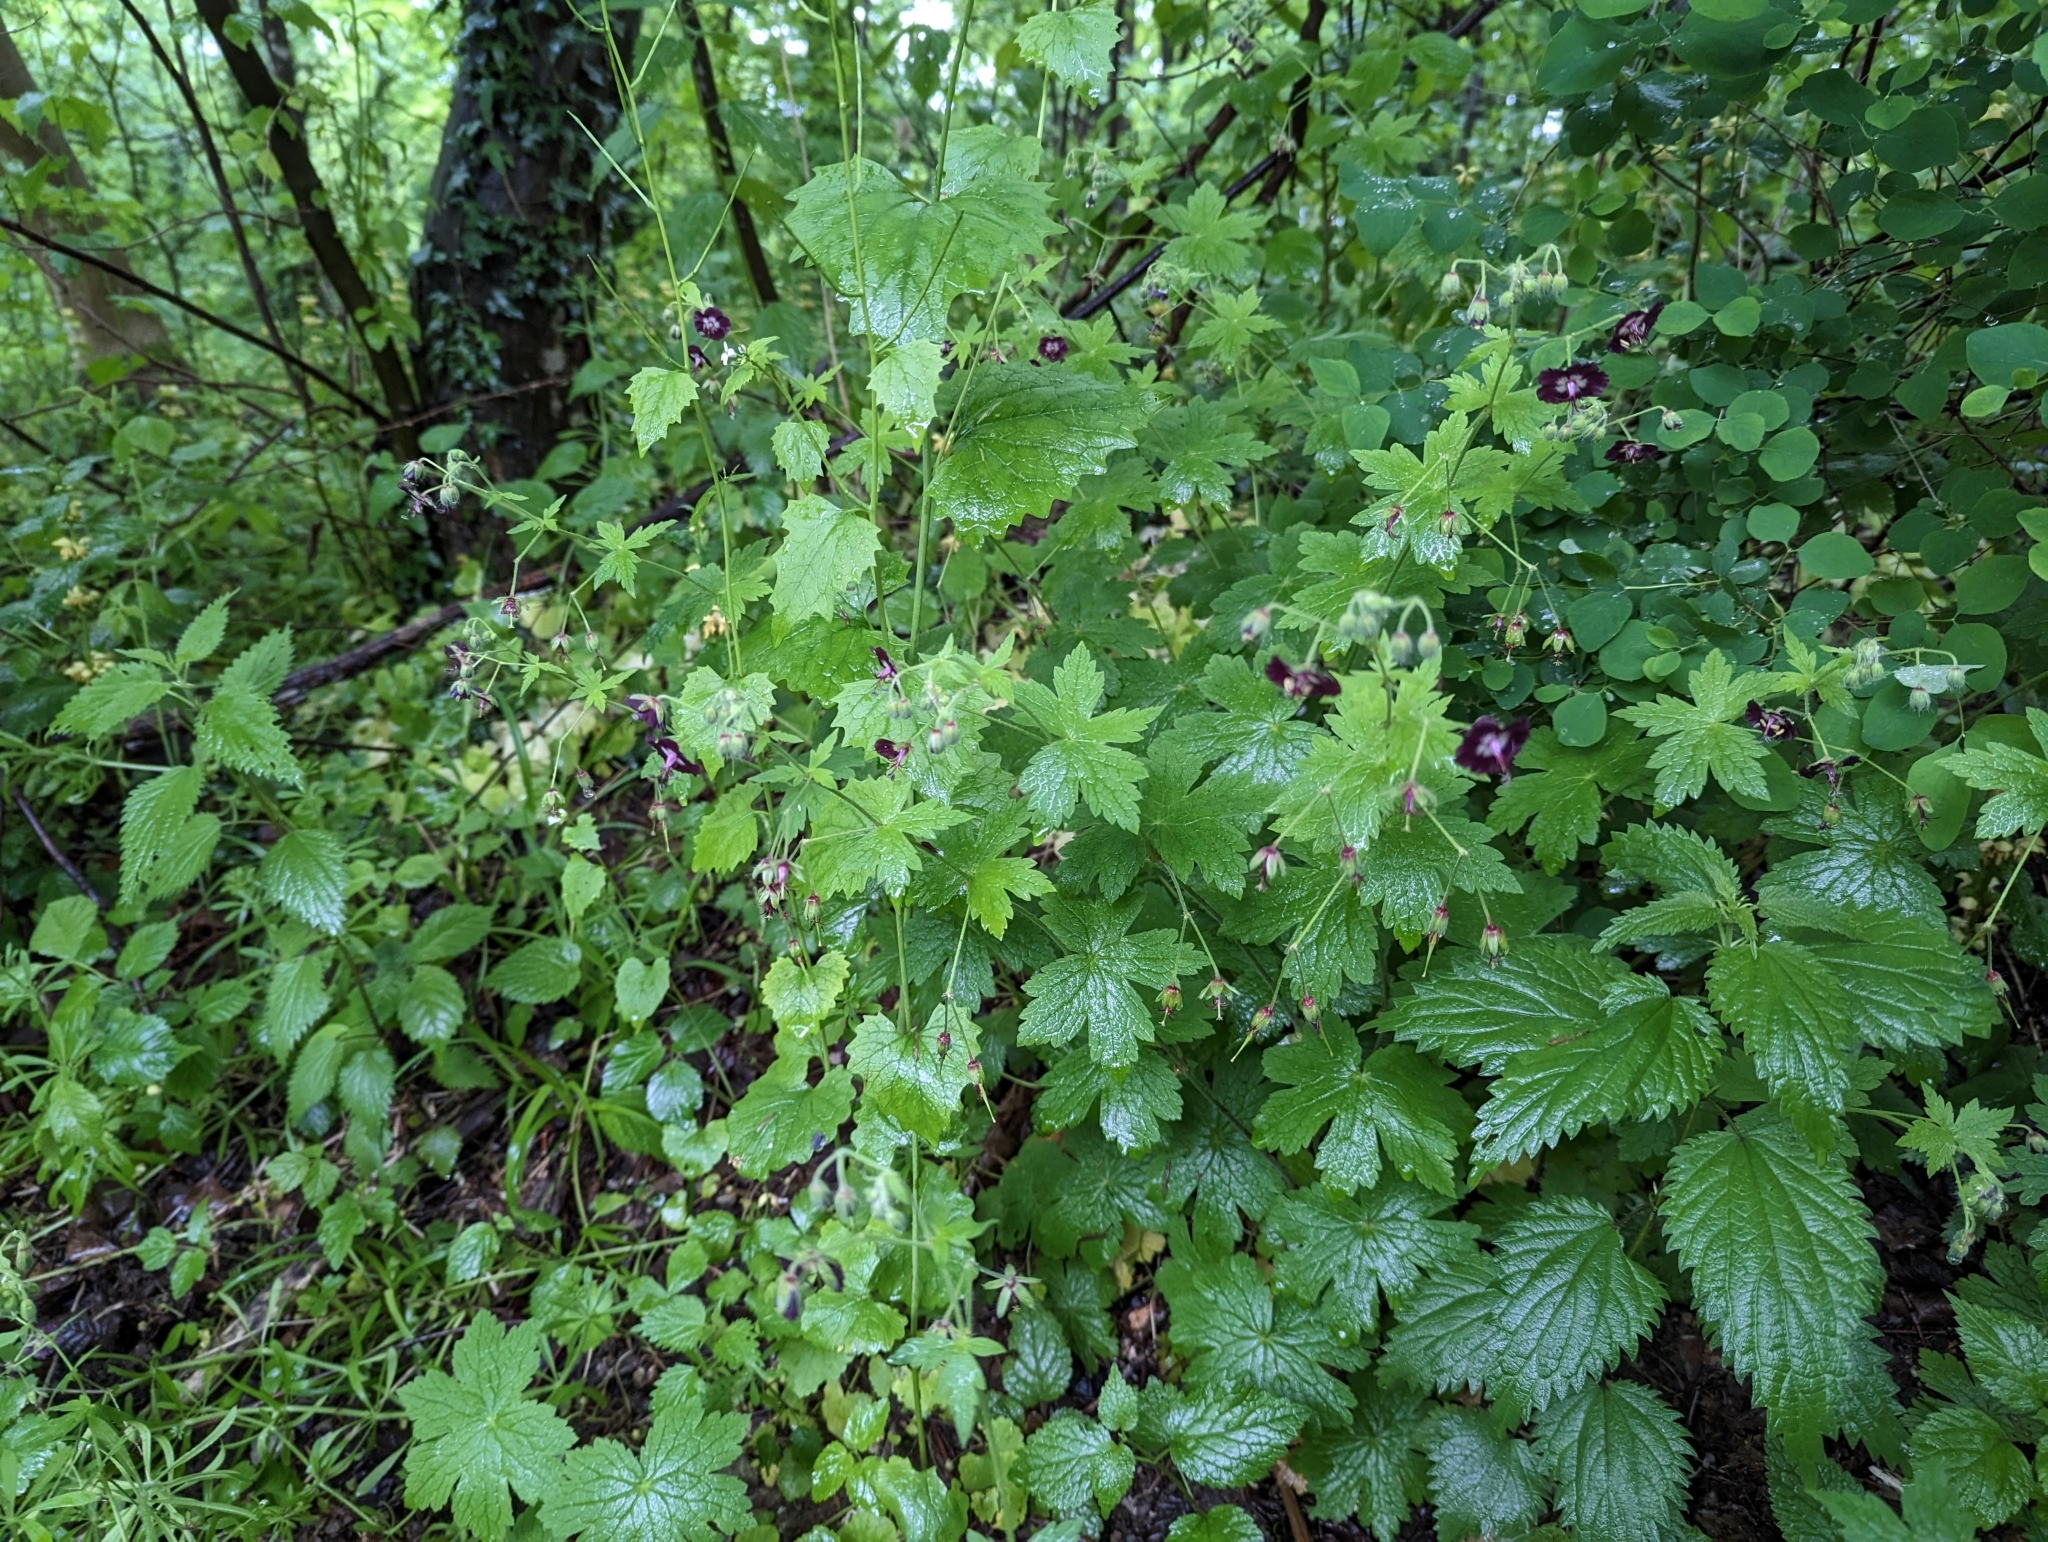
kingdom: Plantae
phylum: Tracheophyta
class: Magnoliopsida
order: Geraniales
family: Geraniaceae
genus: Geranium
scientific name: Geranium phaeum
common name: Dusky crane's-bill
